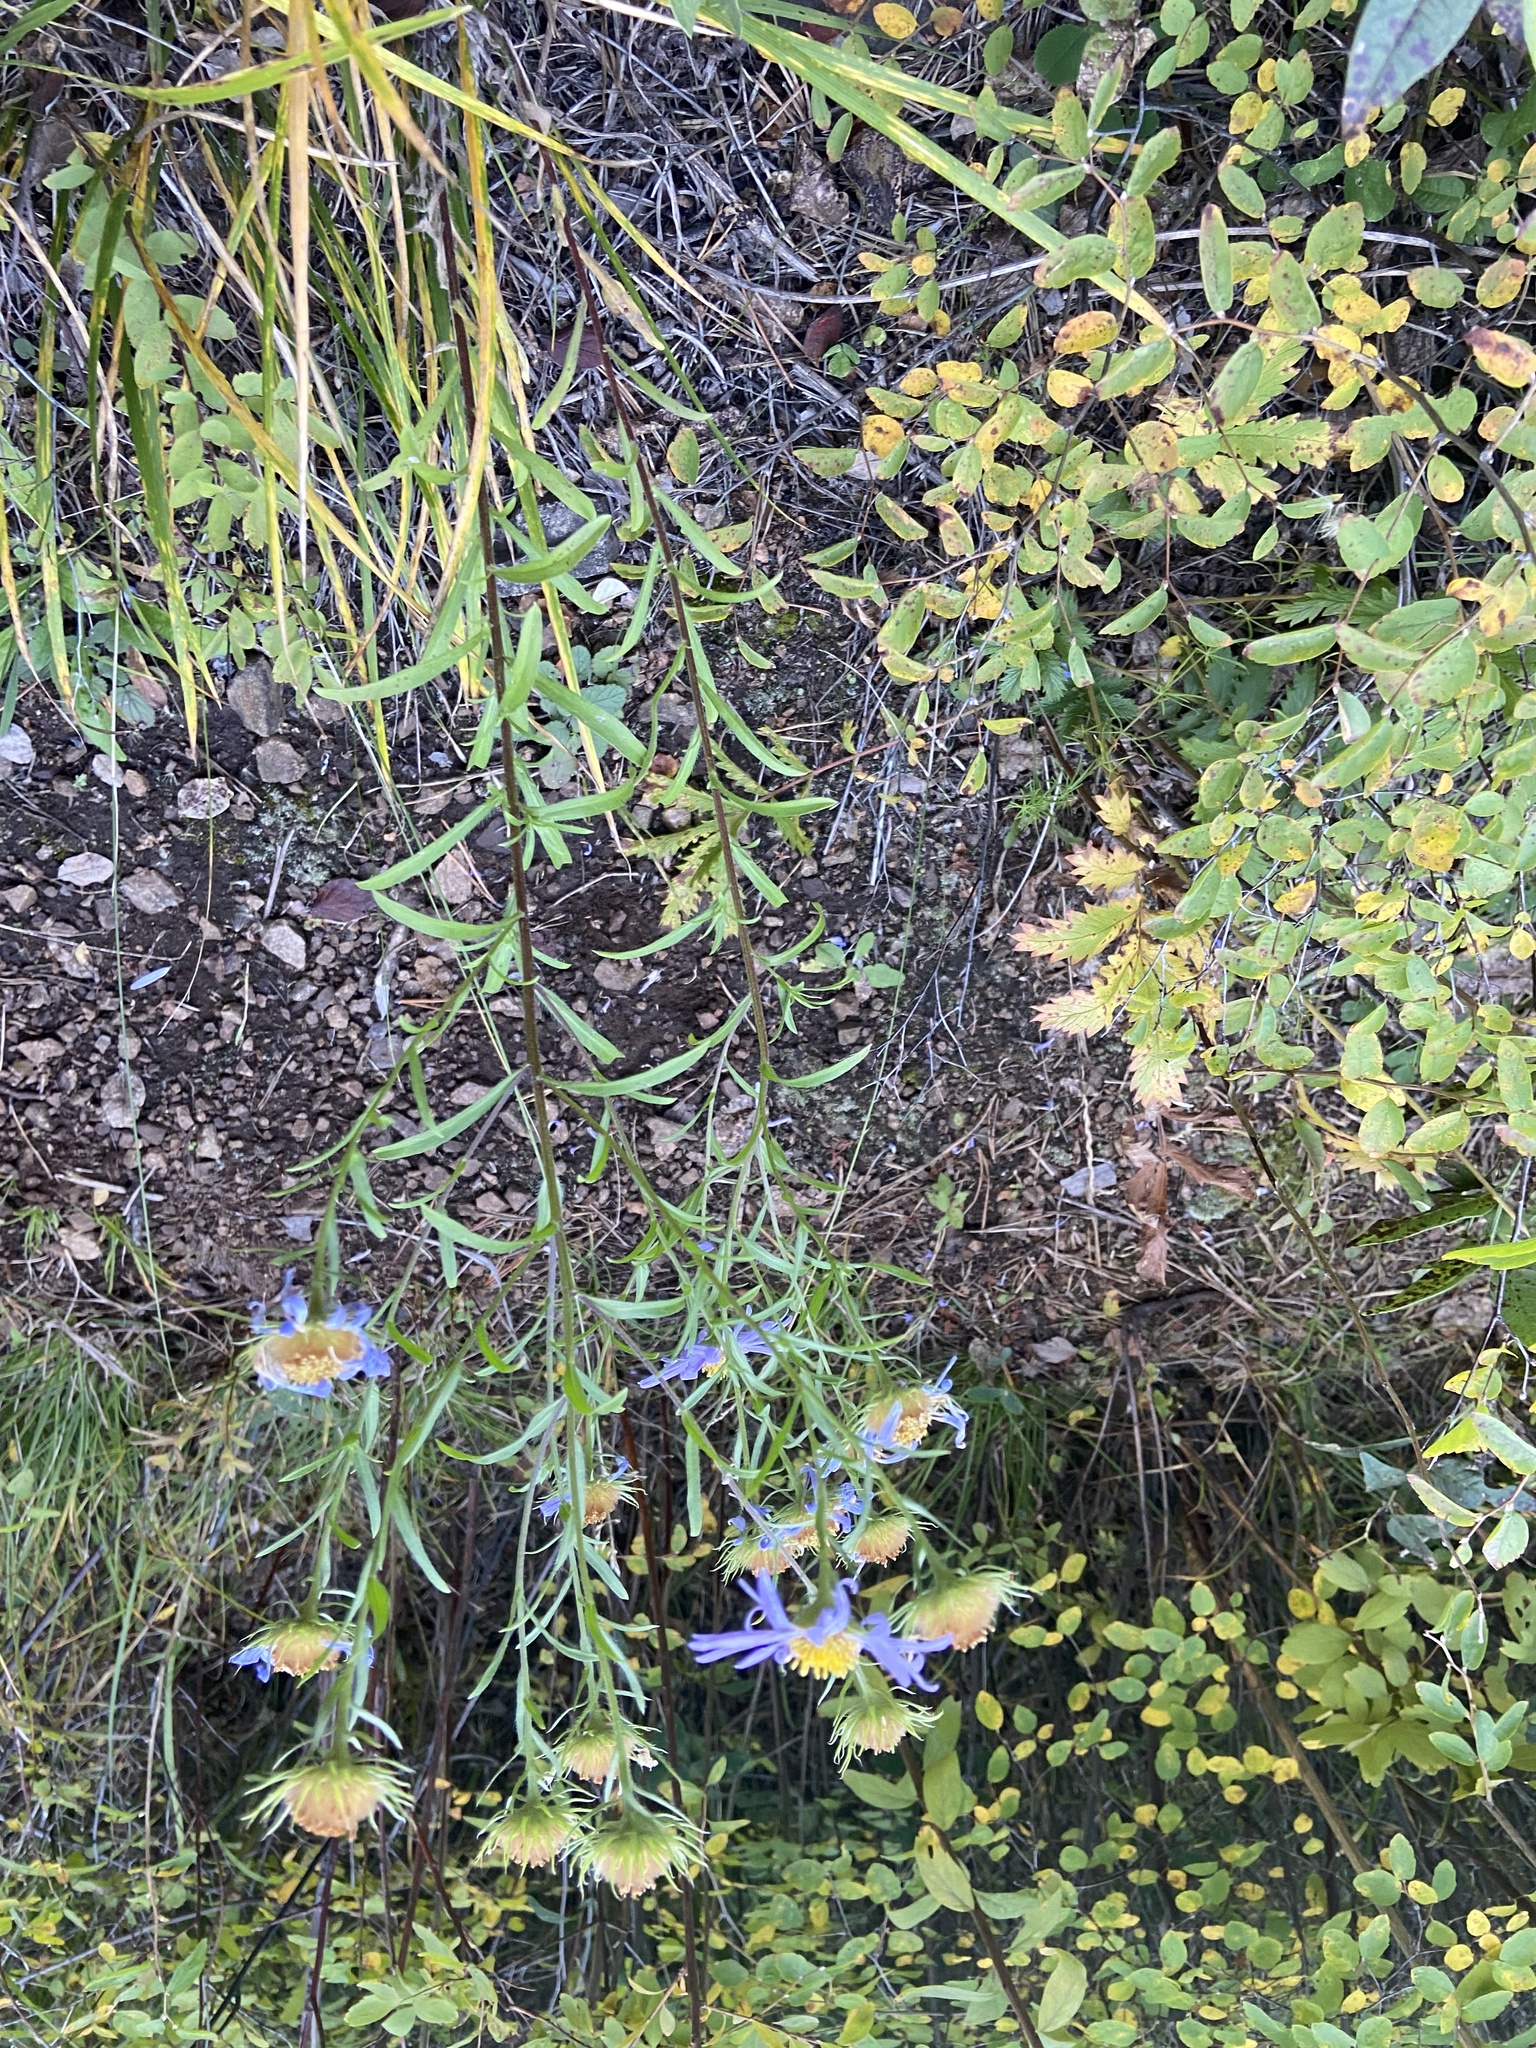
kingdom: Plantae
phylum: Tracheophyta
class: Magnoliopsida
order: Asterales
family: Asteraceae
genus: Aster
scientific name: Aster biennis
